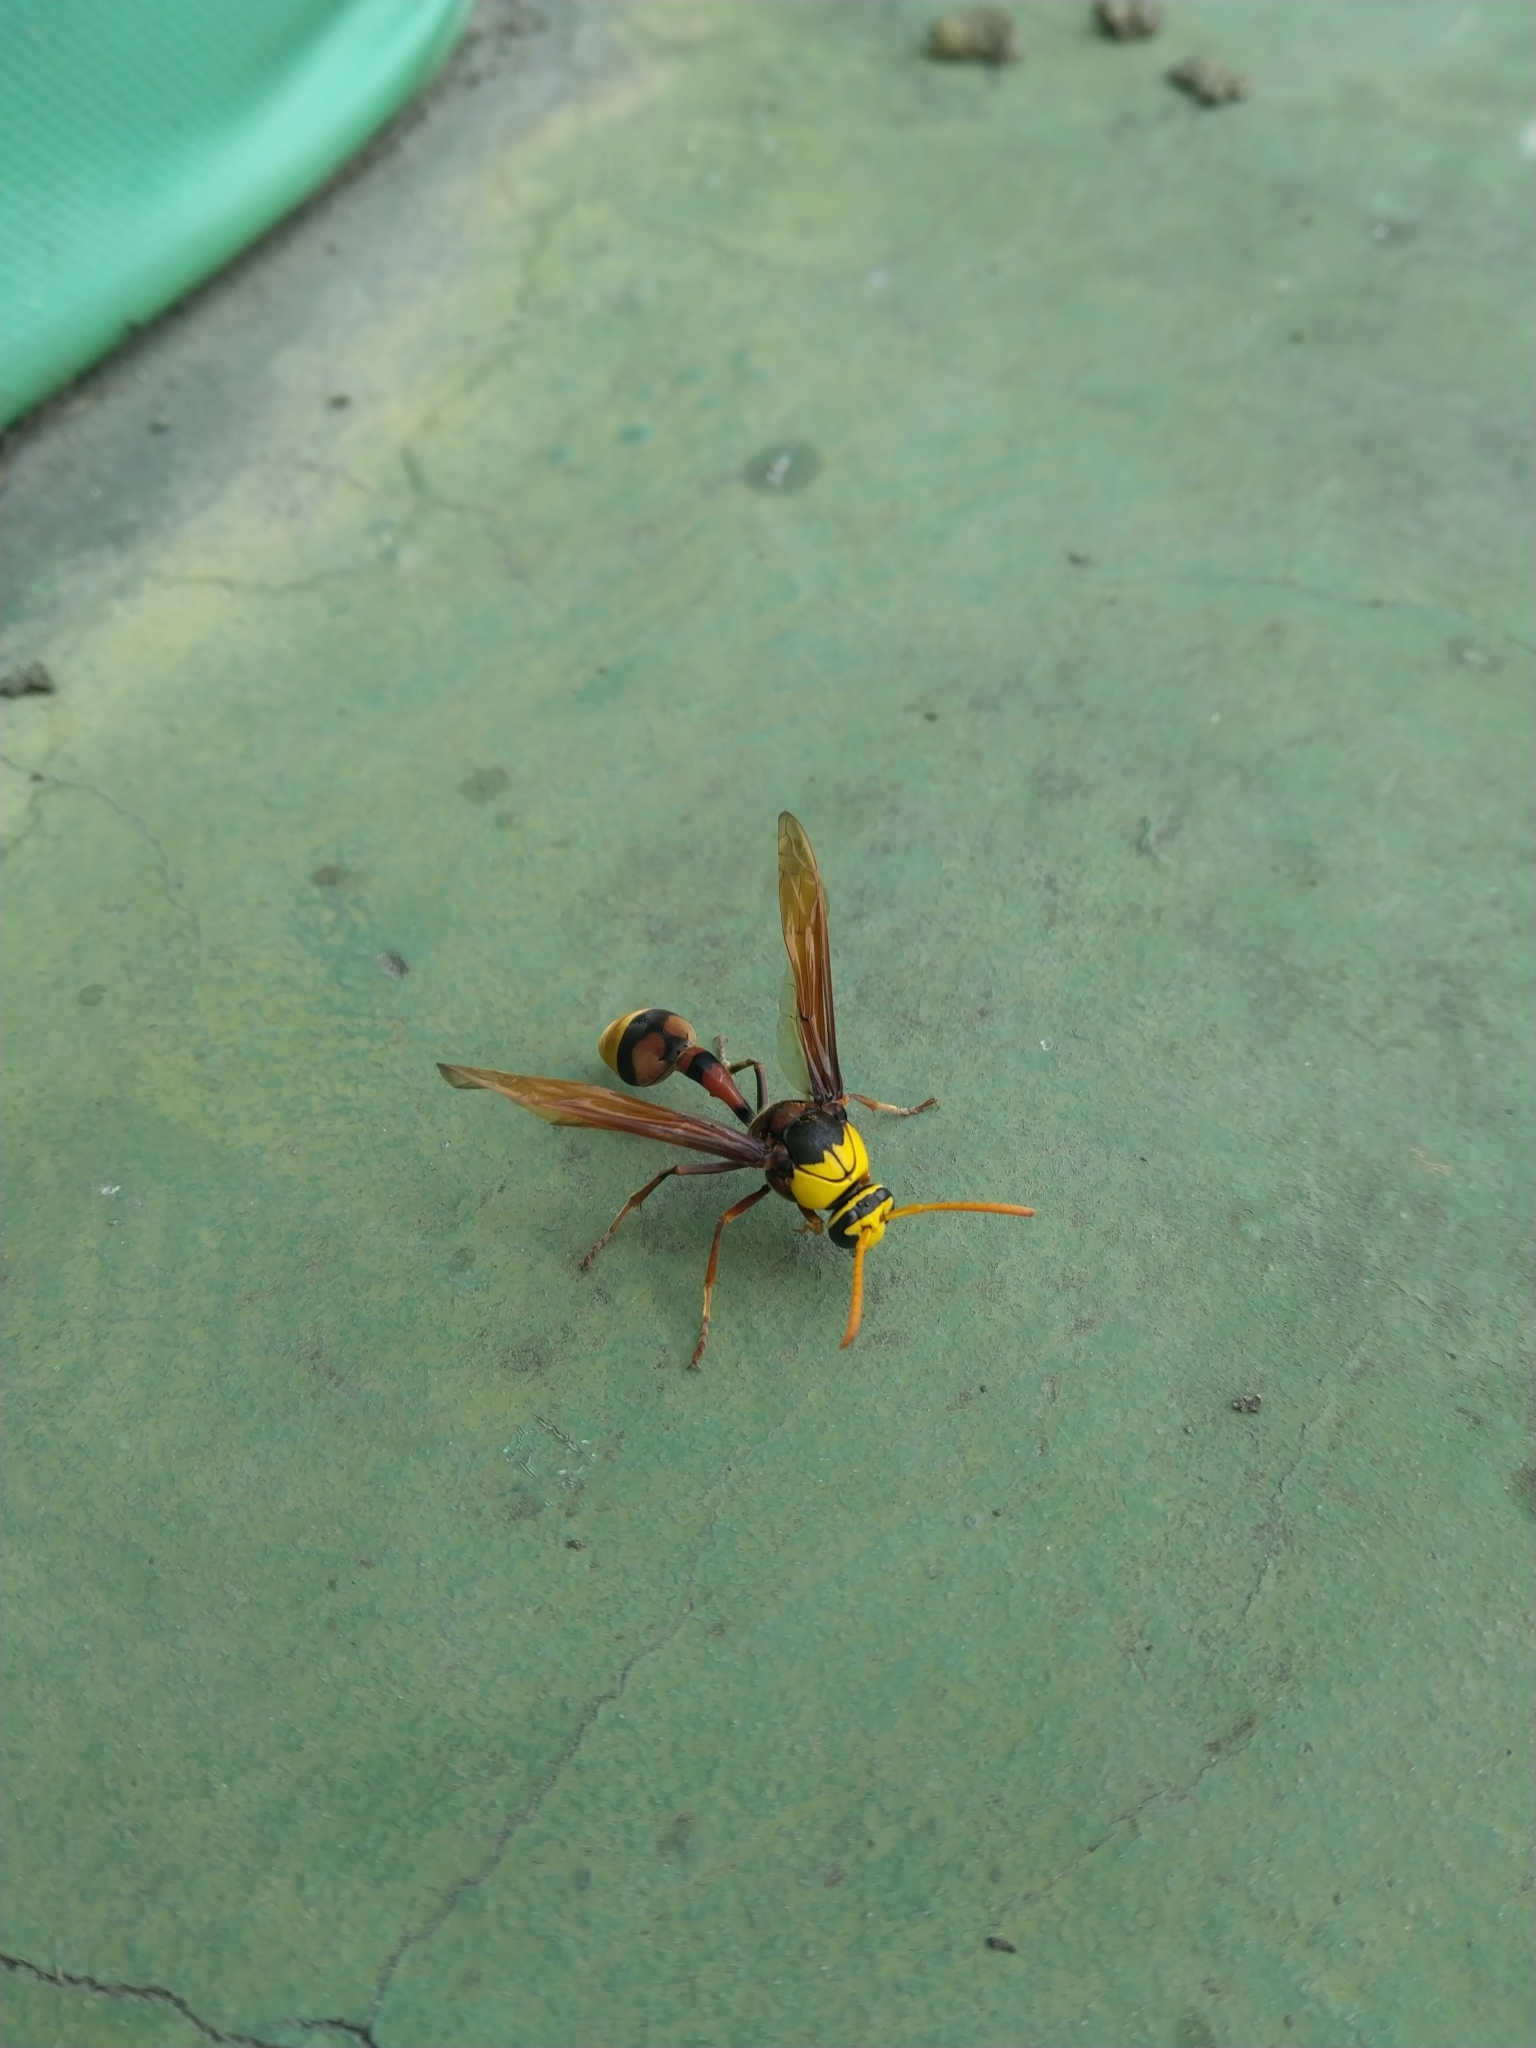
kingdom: Animalia
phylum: Arthropoda
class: Insecta
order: Hymenoptera
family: Eumenidae
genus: Delta
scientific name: Delta pyriforme
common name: Wasp
